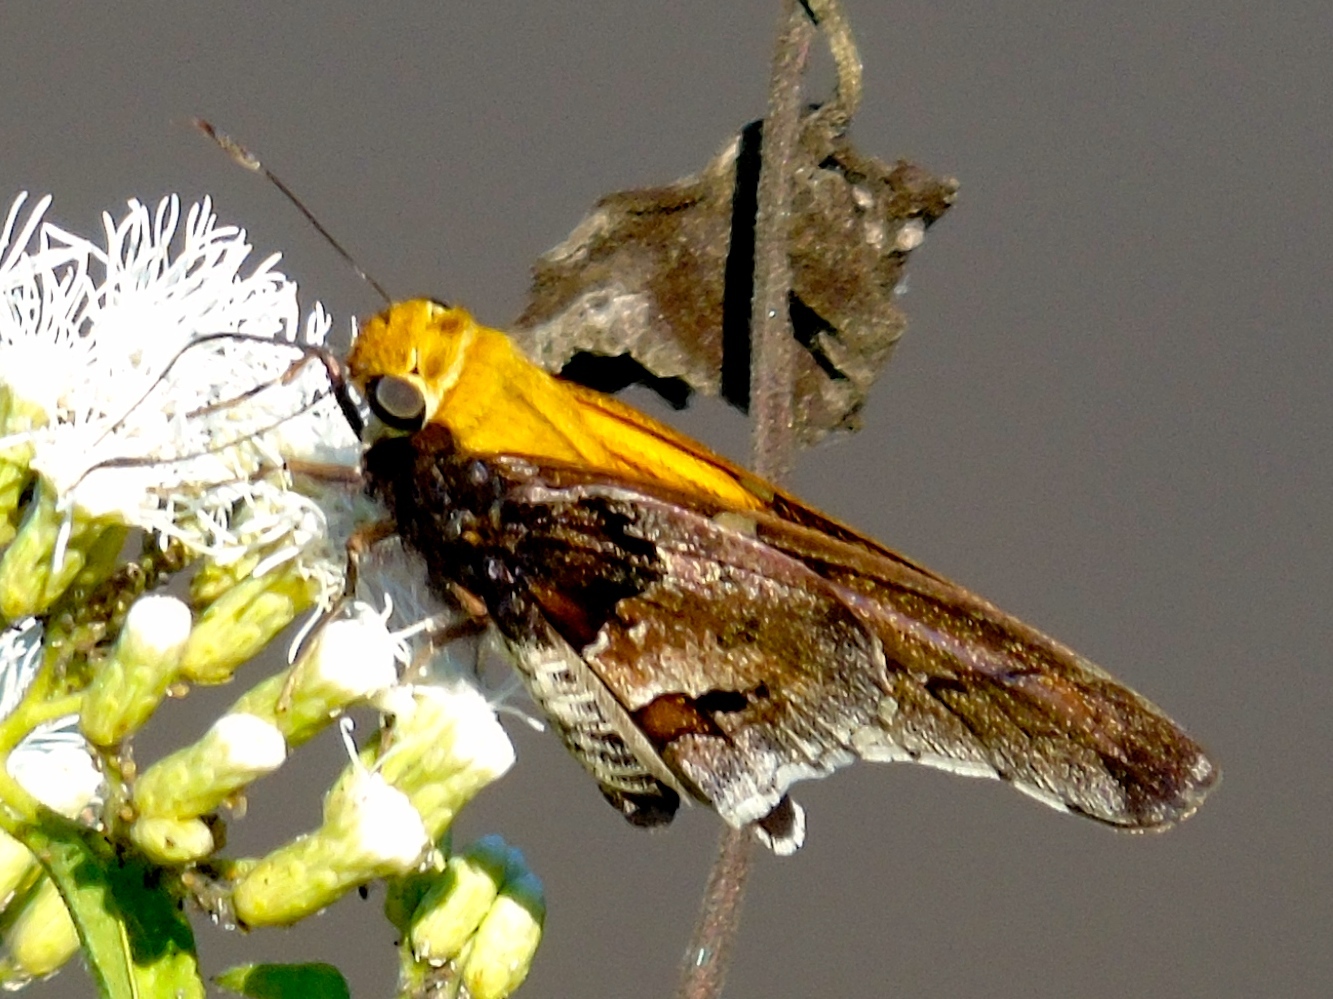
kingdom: Animalia
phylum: Arthropoda
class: Insecta
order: Lepidoptera
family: Hesperiidae
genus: Proteides
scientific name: Proteides mercurius
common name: Mercurial skipper
